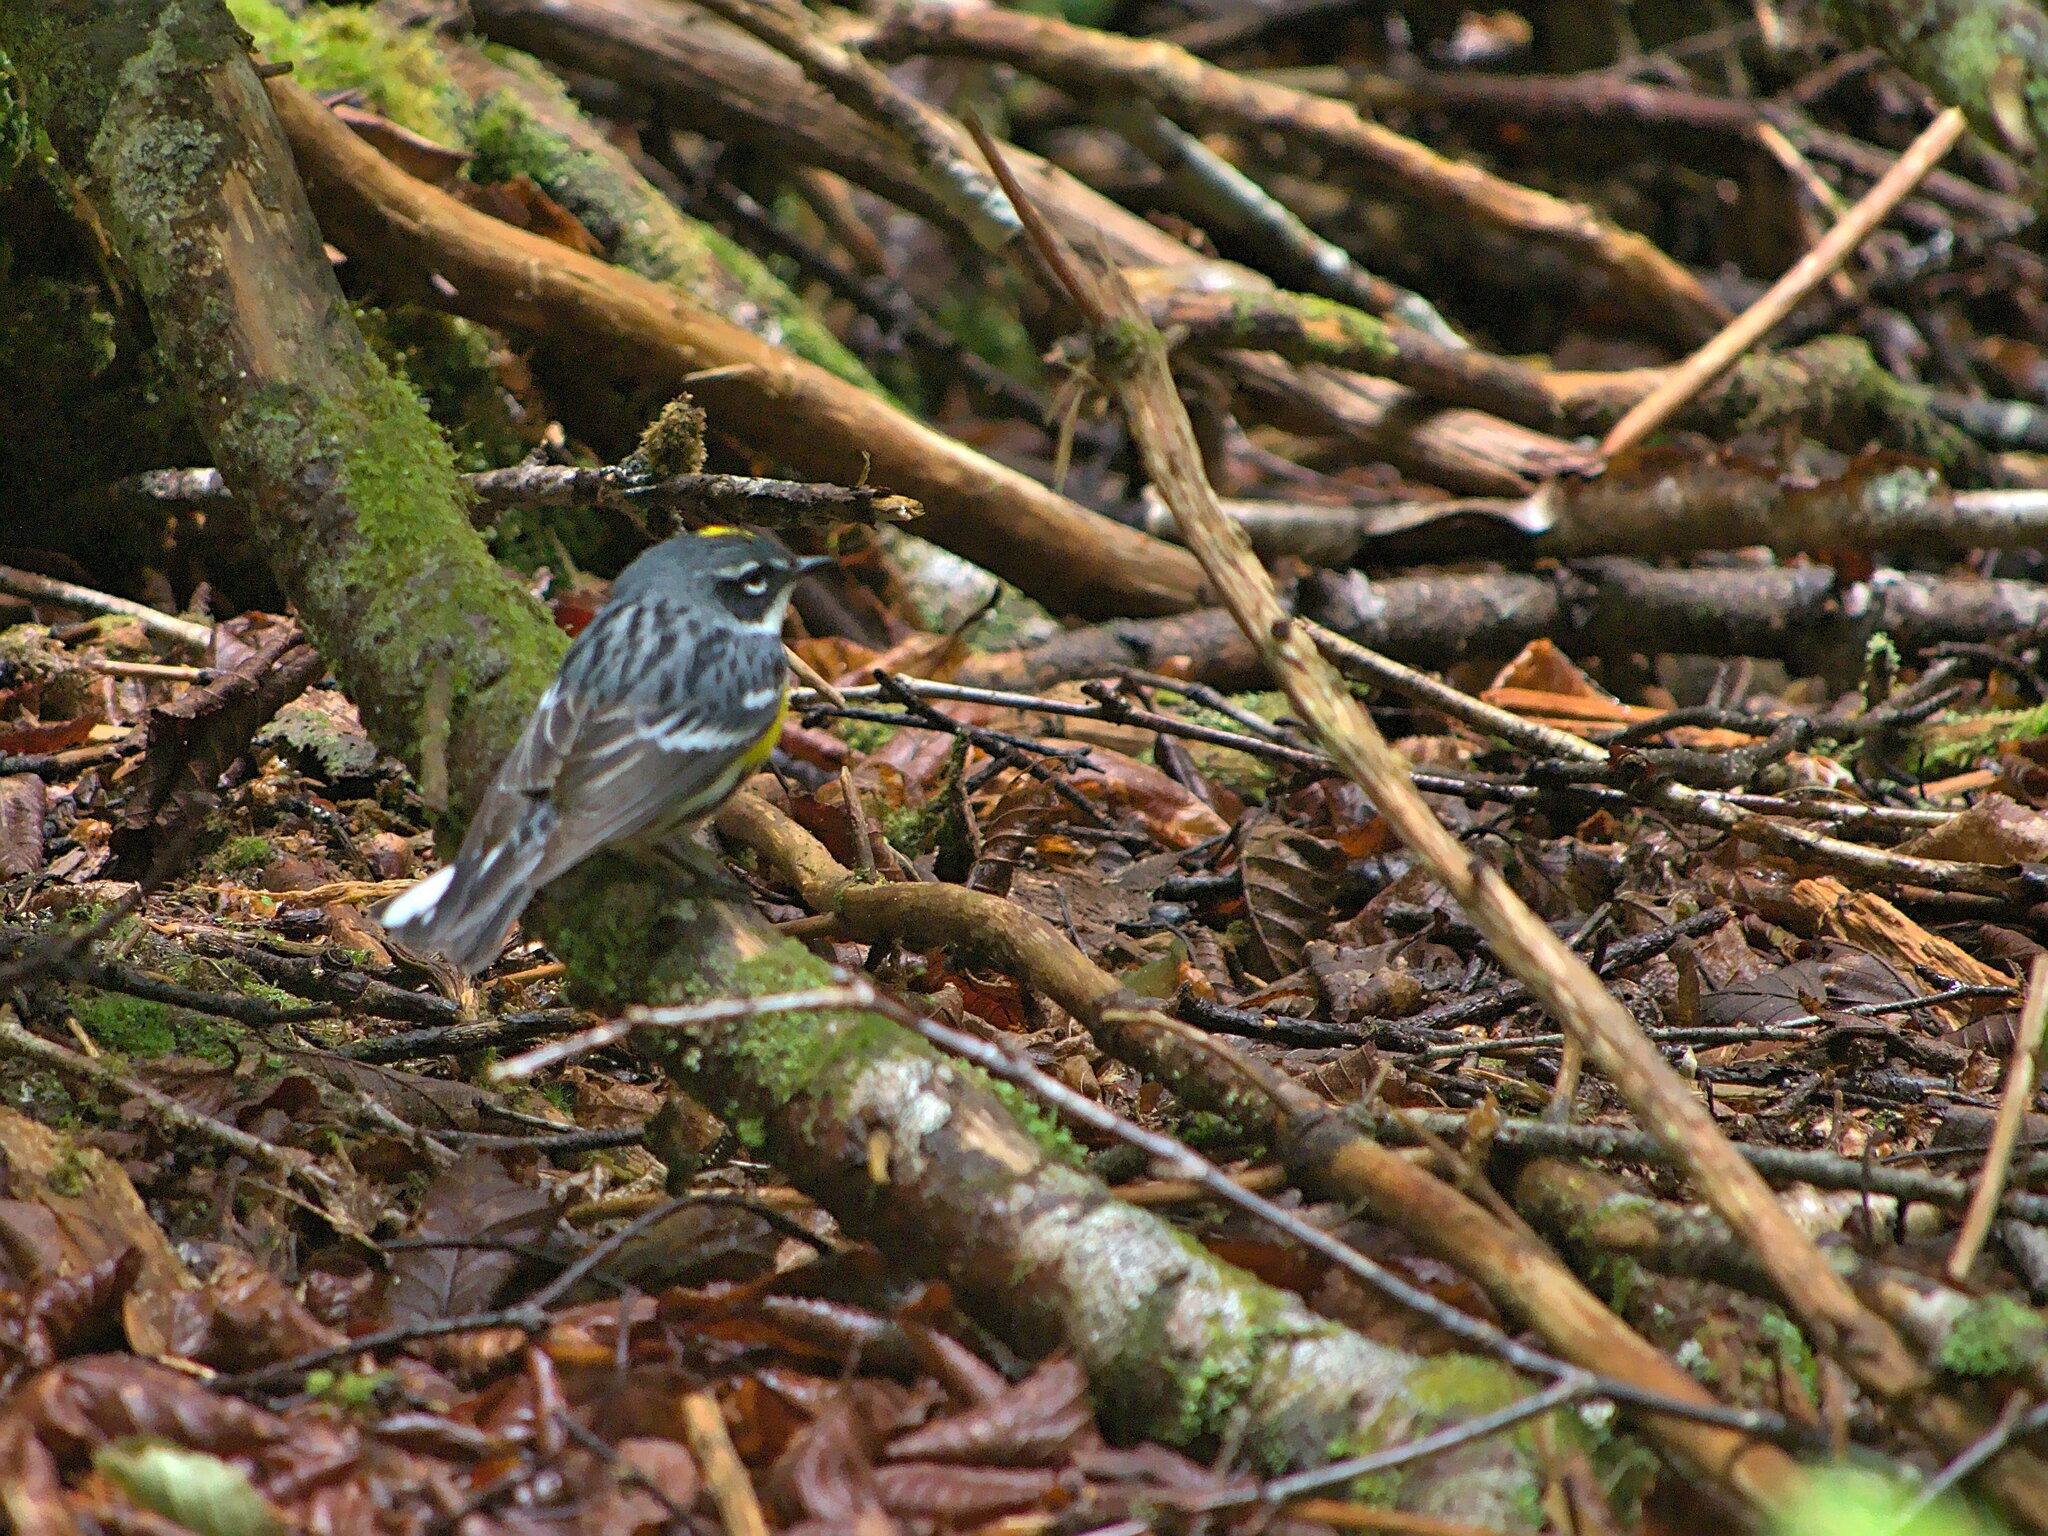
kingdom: Animalia
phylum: Chordata
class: Aves
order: Passeriformes
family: Parulidae
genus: Setophaga
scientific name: Setophaga coronata
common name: Myrtle warbler
